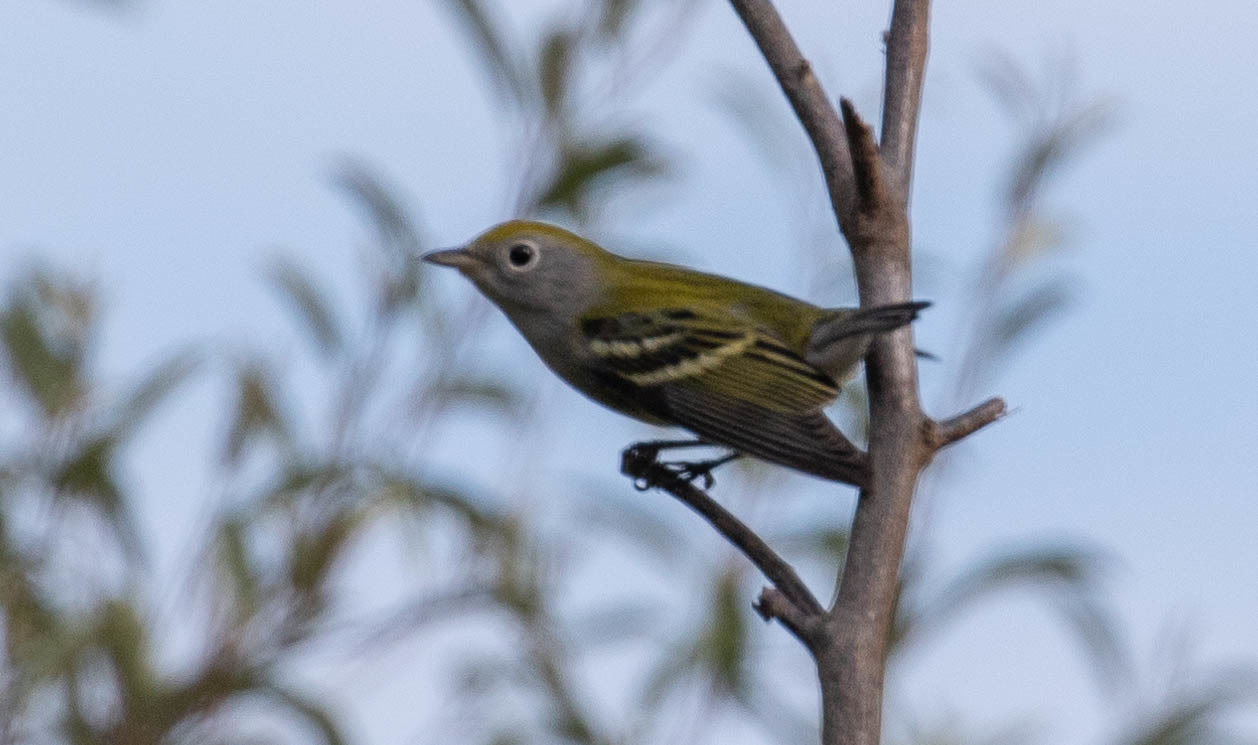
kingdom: Animalia
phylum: Chordata
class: Aves
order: Passeriformes
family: Parulidae
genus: Setophaga
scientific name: Setophaga pensylvanica
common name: Chestnut-sided warbler
